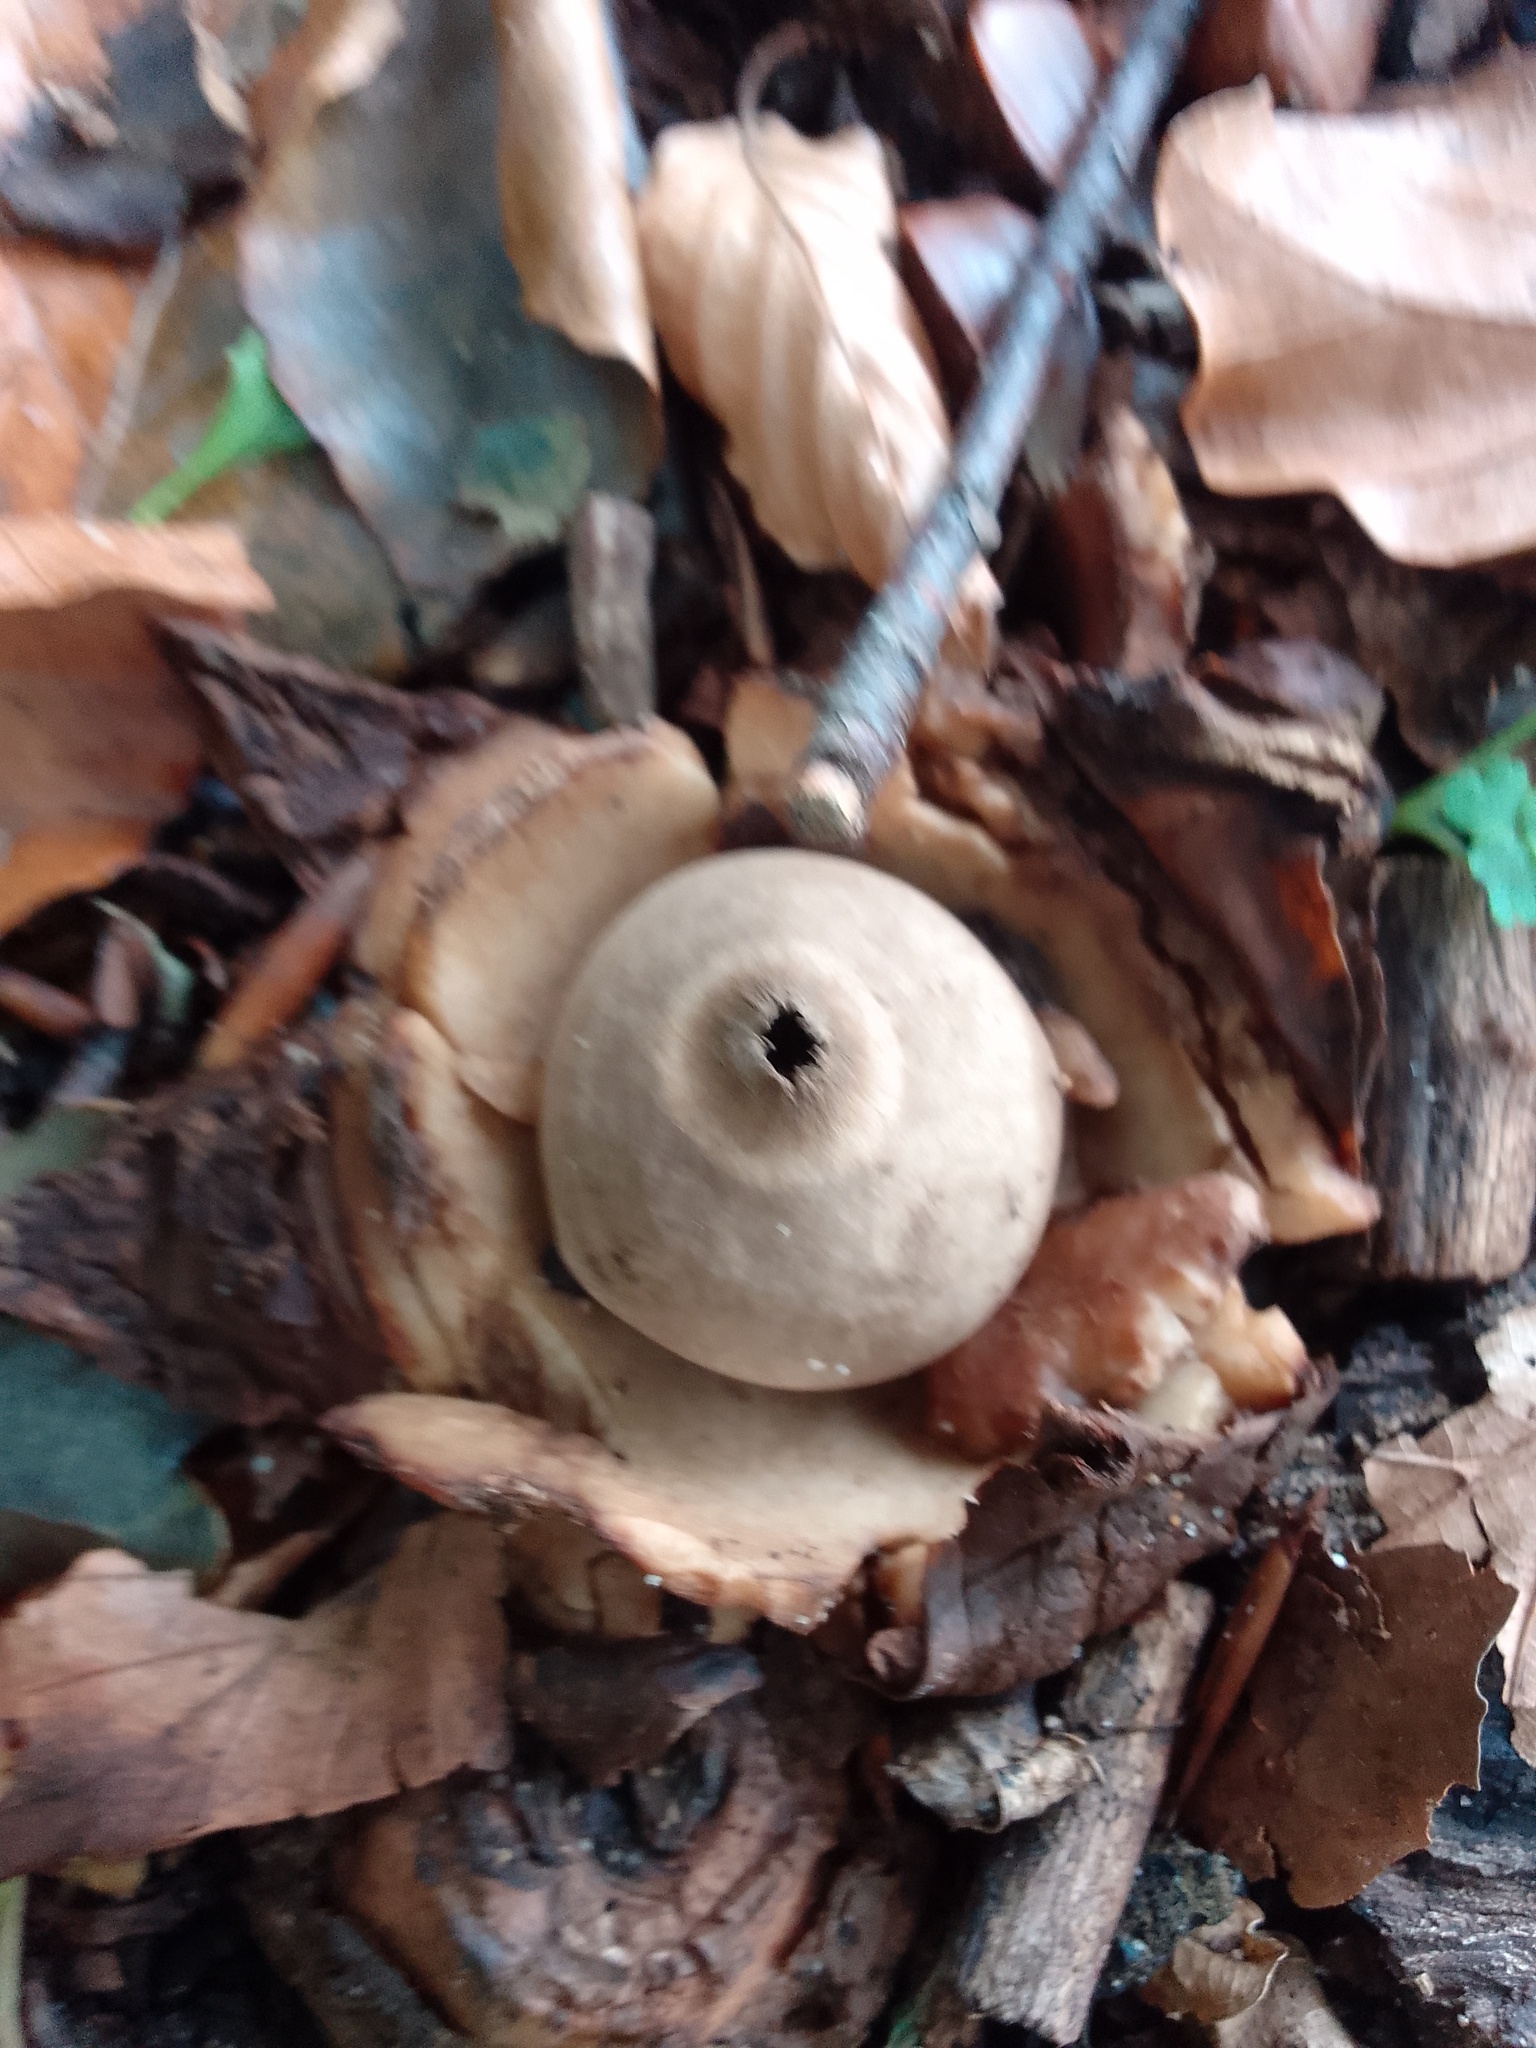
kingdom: Fungi
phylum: Basidiomycota
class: Agaricomycetes
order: Geastrales
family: Geastraceae
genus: Geastrum
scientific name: Geastrum triplex
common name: Collared earthstar
